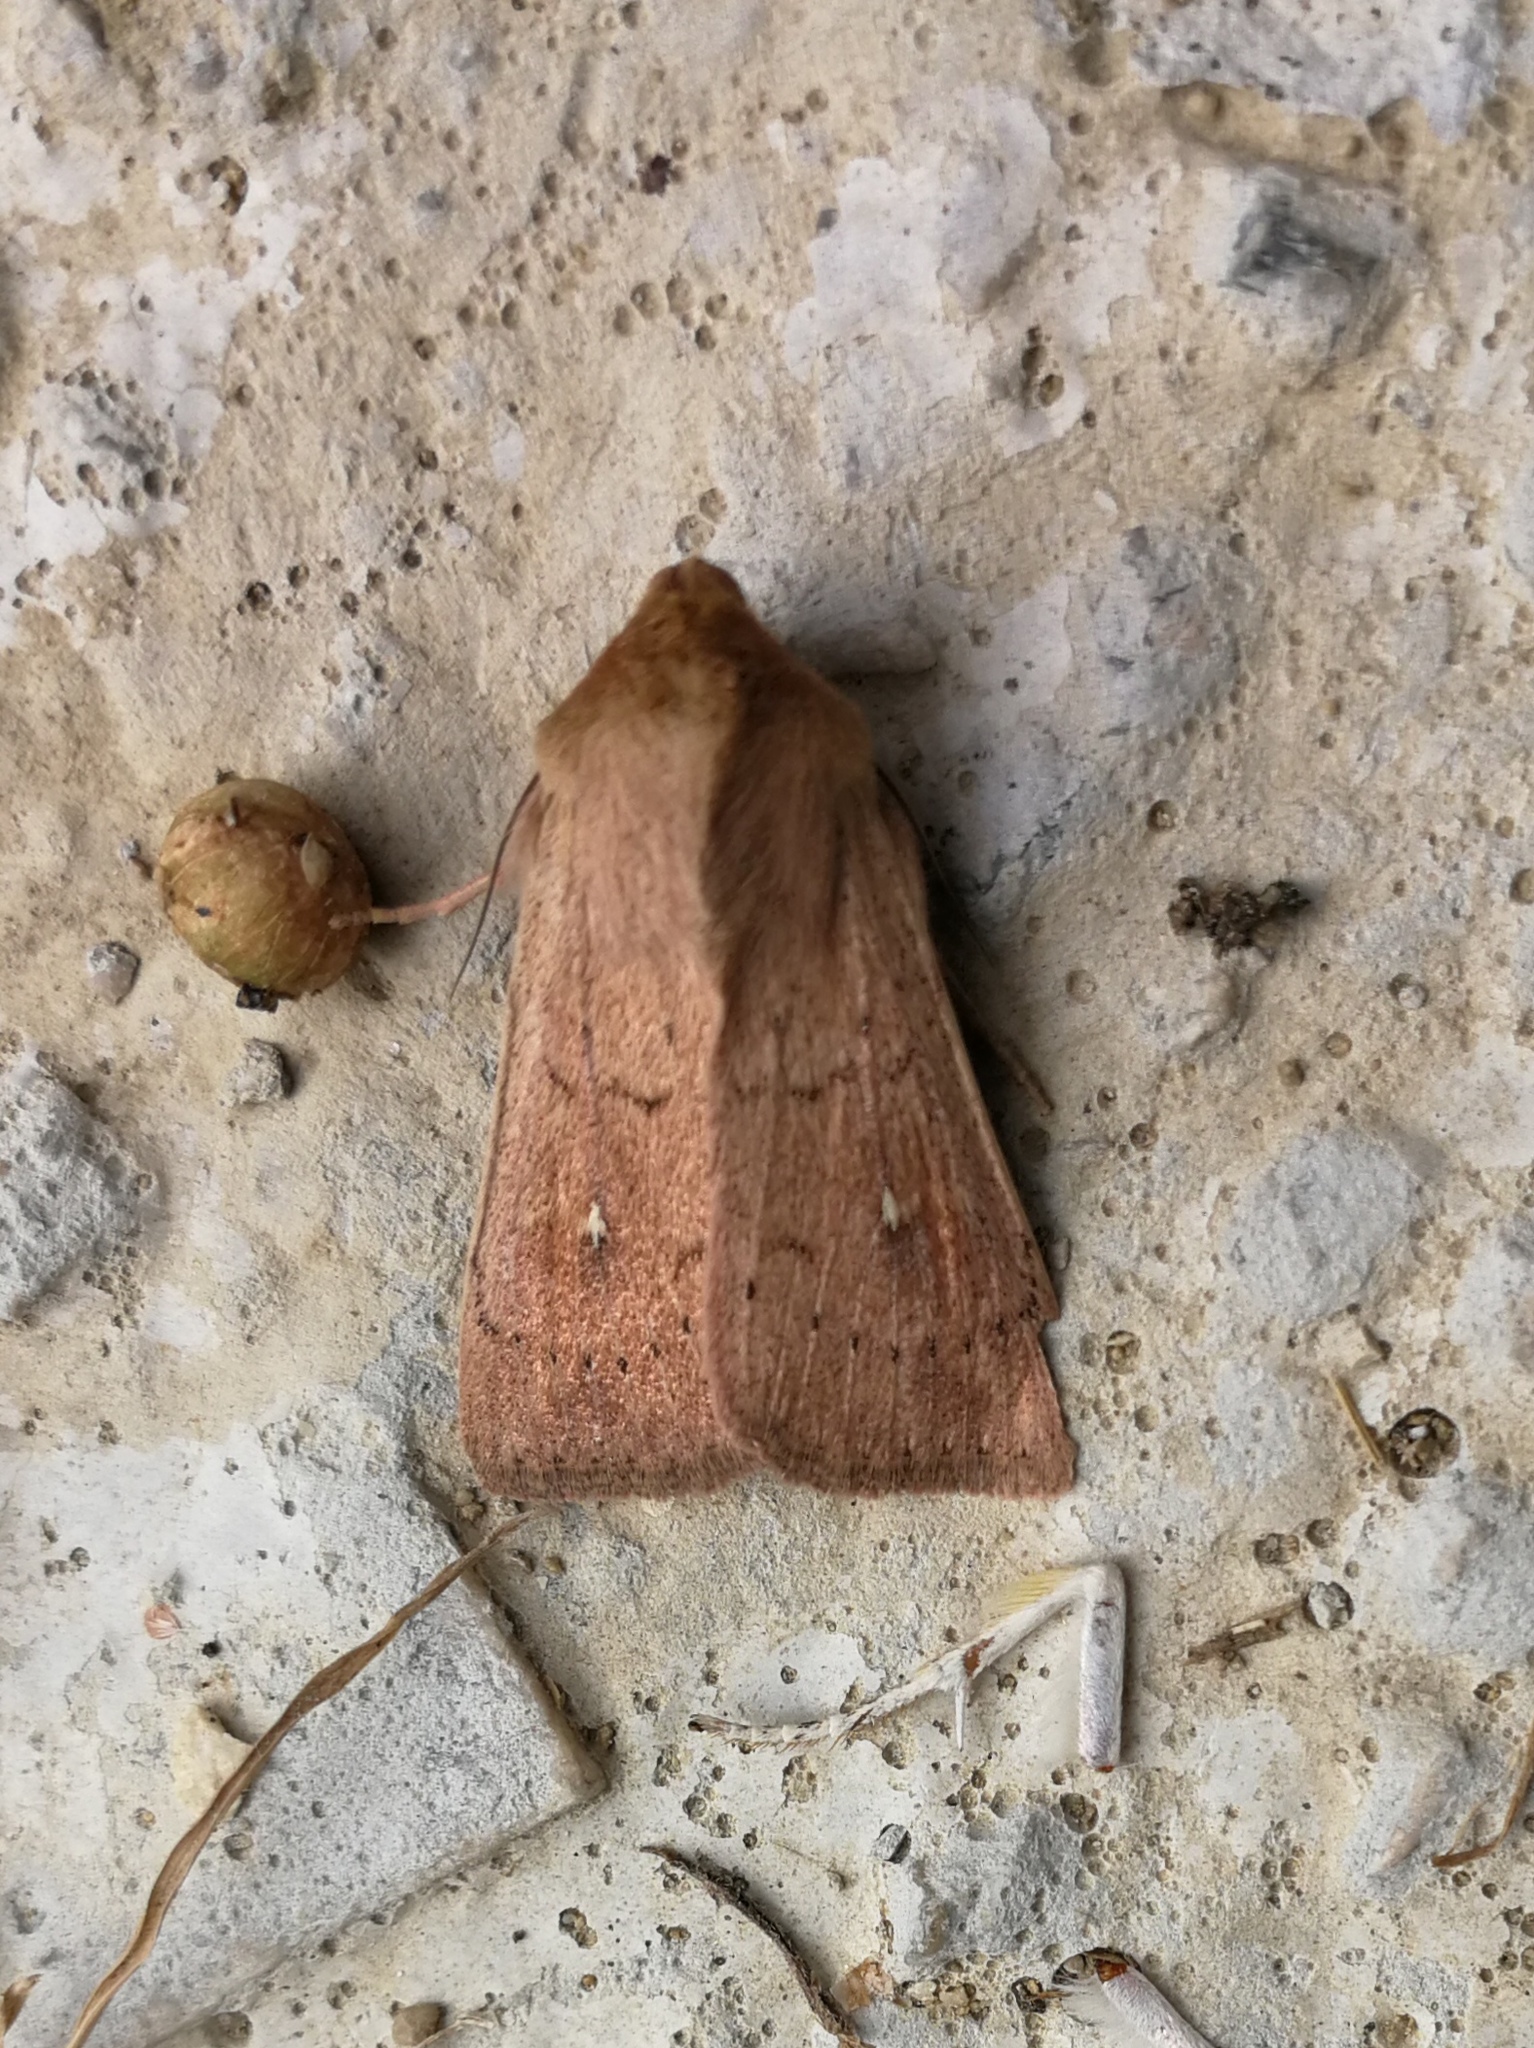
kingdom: Animalia
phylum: Arthropoda
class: Insecta
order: Lepidoptera
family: Noctuidae
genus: Mythimna
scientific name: Mythimna ferrago
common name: Clay
